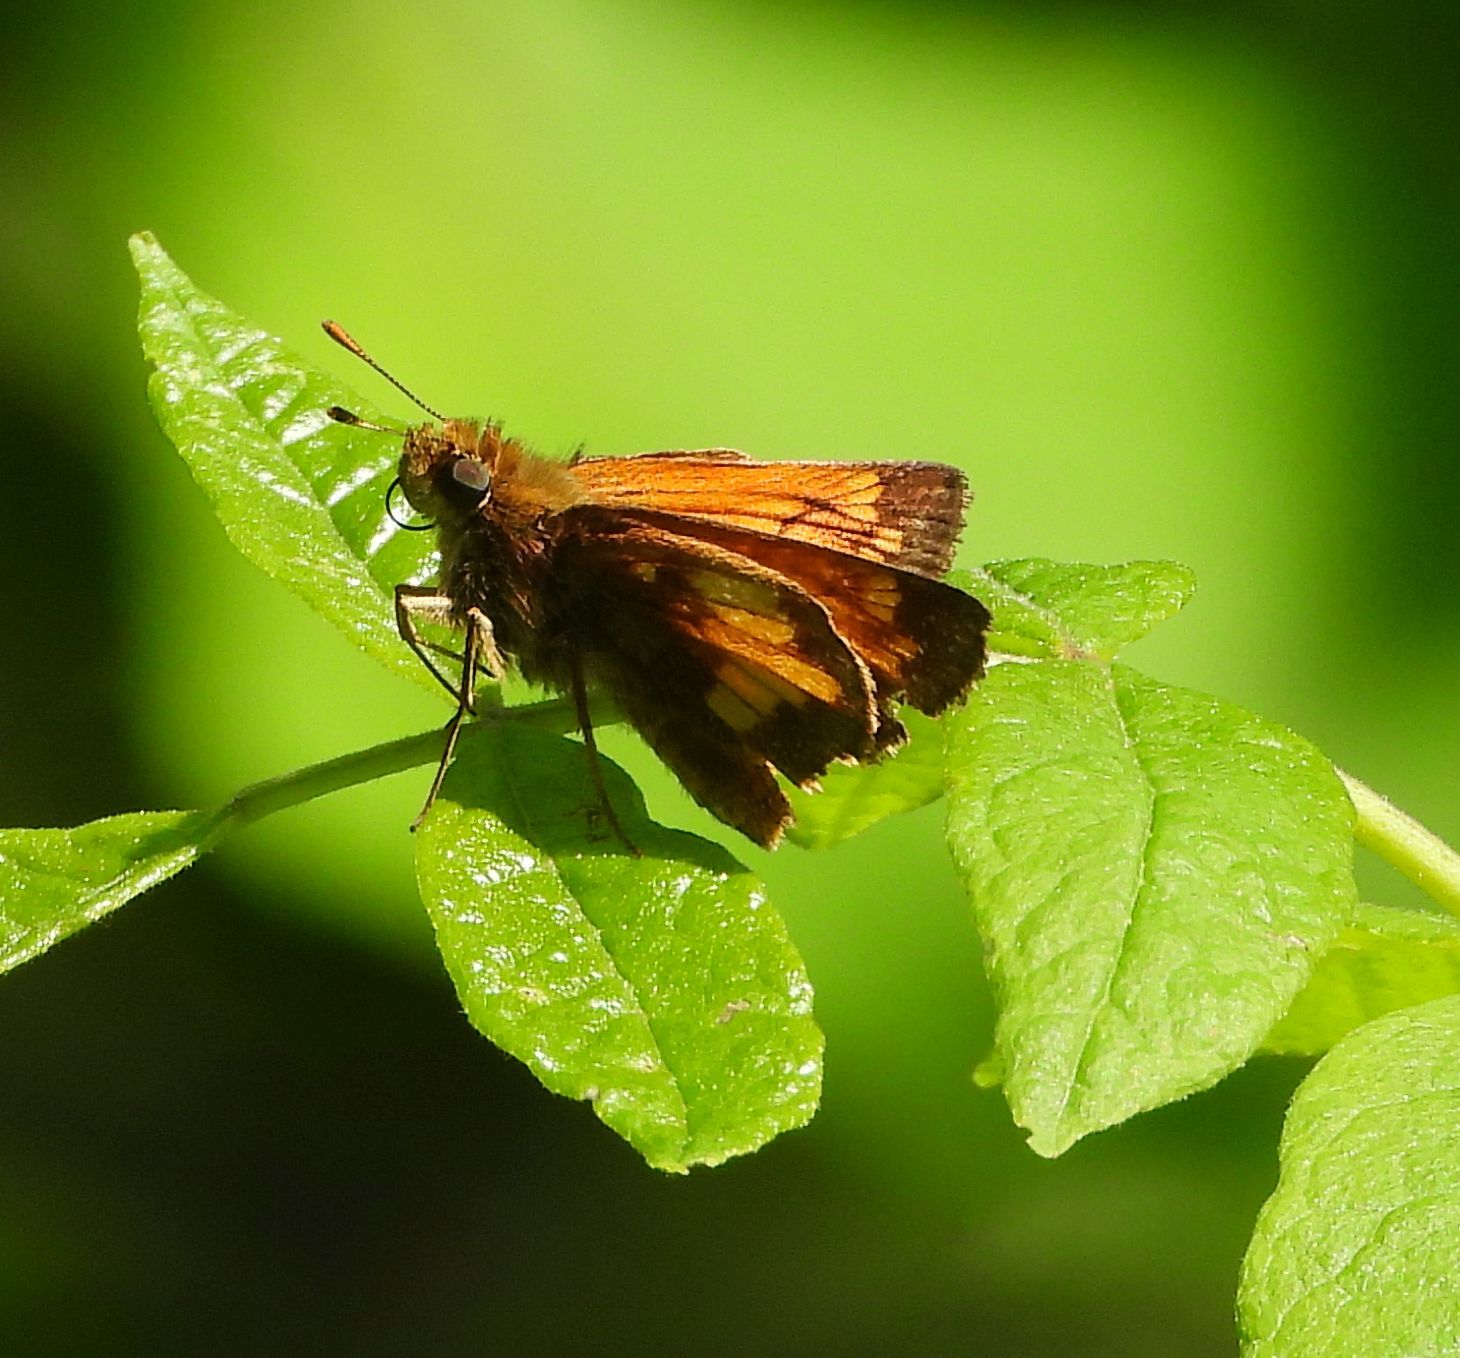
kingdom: Animalia
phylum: Arthropoda
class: Insecta
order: Lepidoptera
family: Hesperiidae
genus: Lon
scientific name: Lon hobomok
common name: Hobomok skipper
